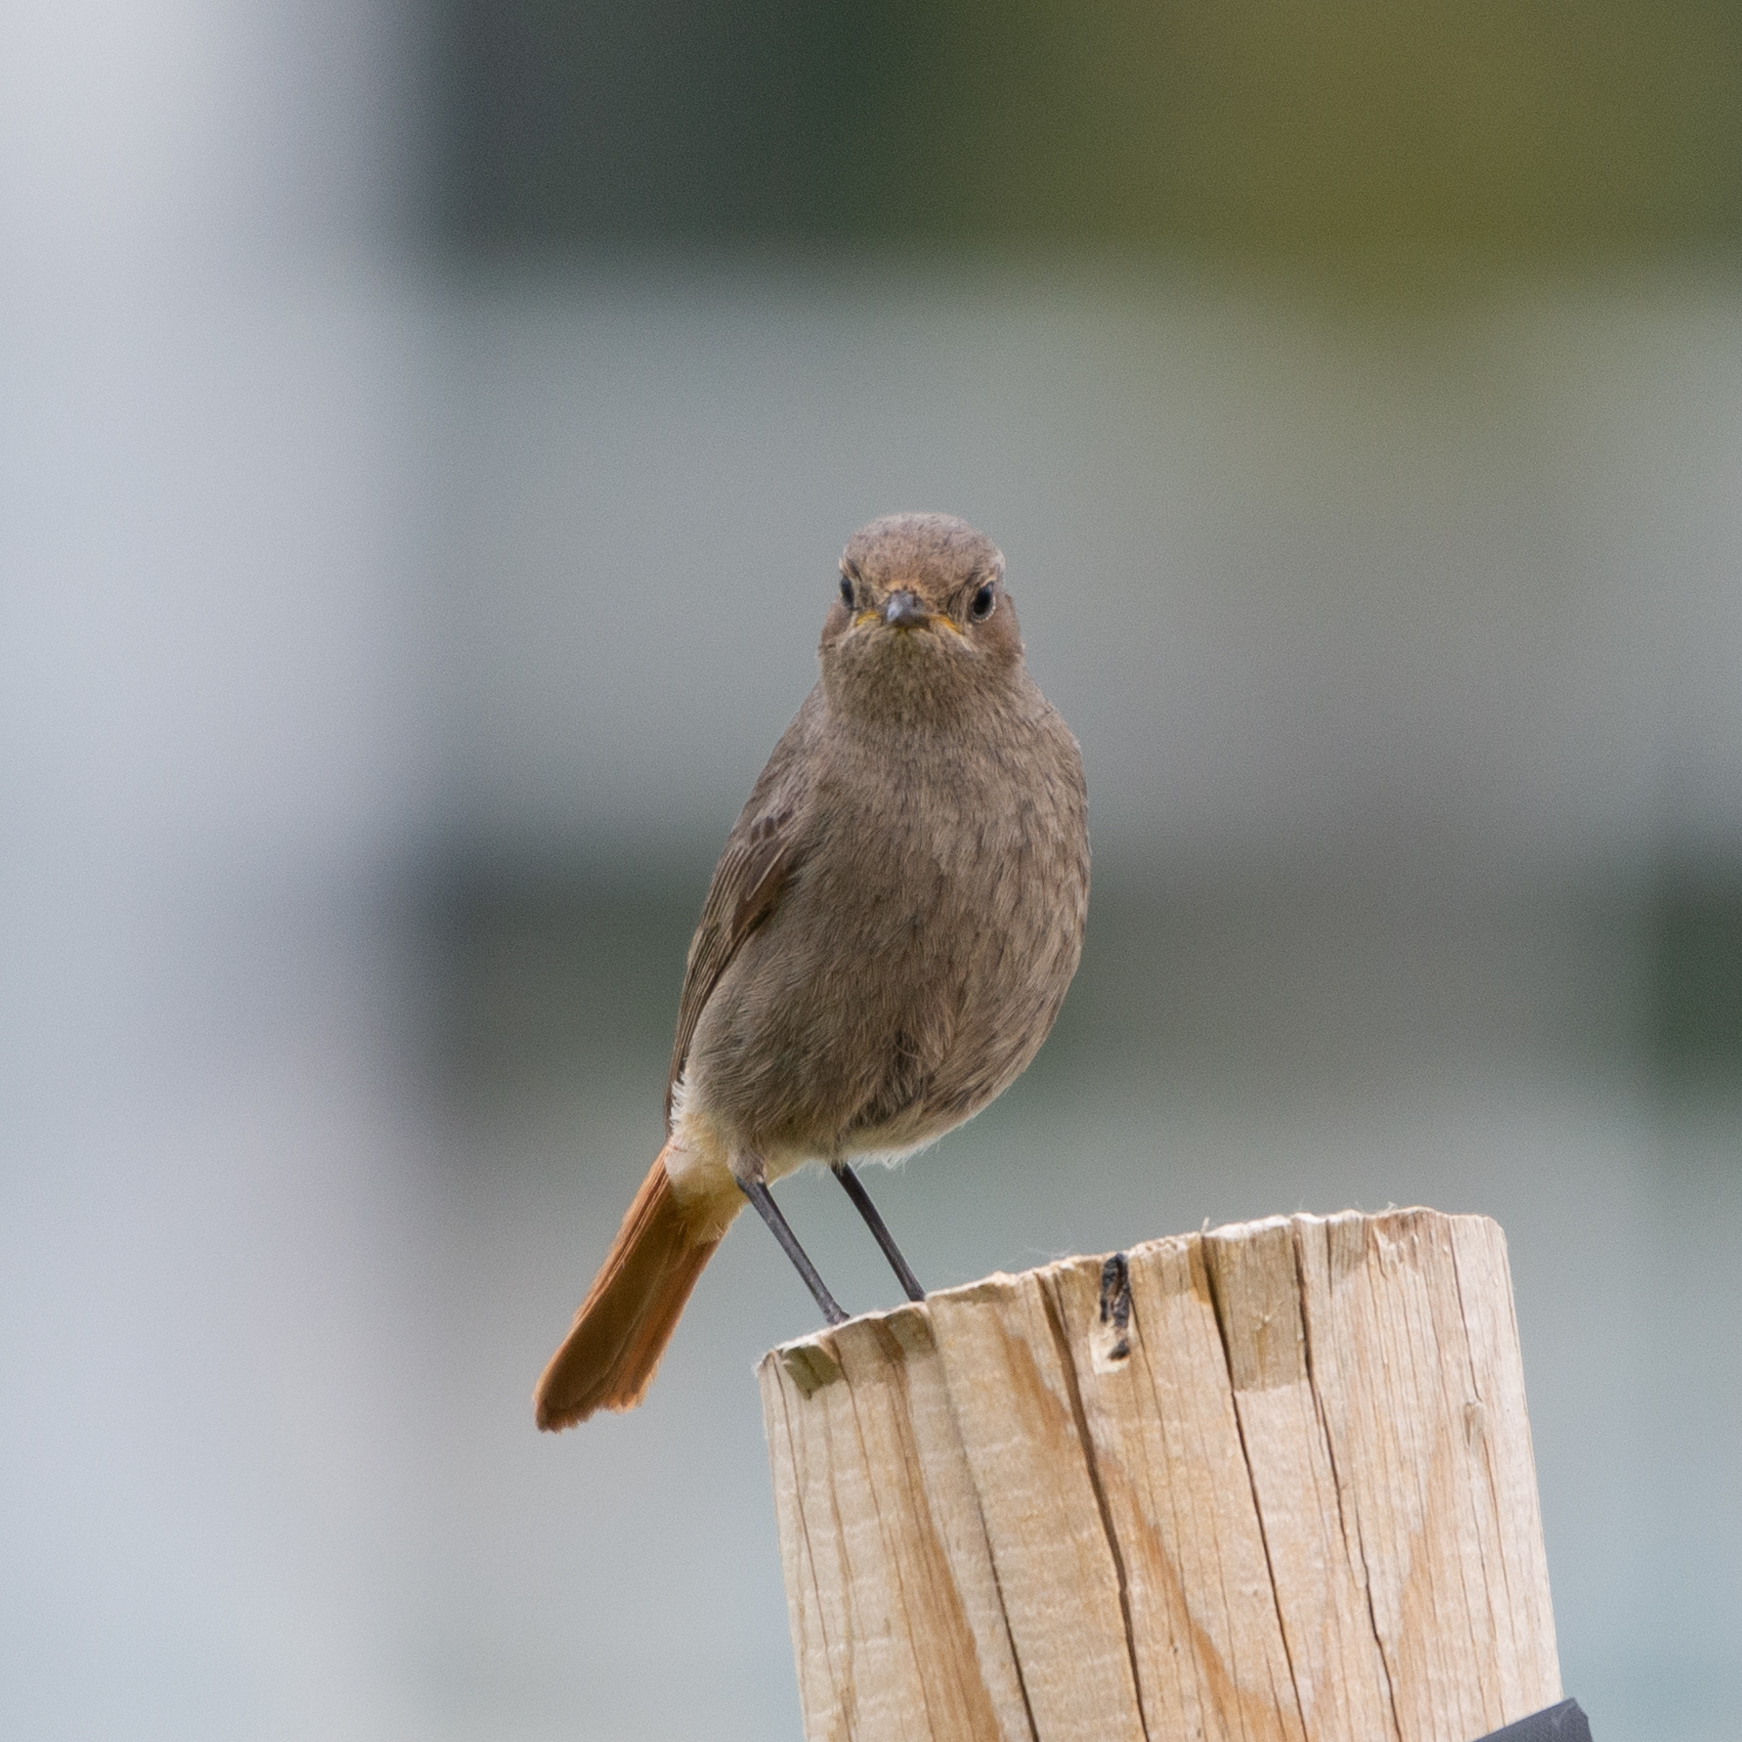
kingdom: Animalia
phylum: Chordata
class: Aves
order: Passeriformes
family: Muscicapidae
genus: Phoenicurus
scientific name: Phoenicurus ochruros
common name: Black redstart
